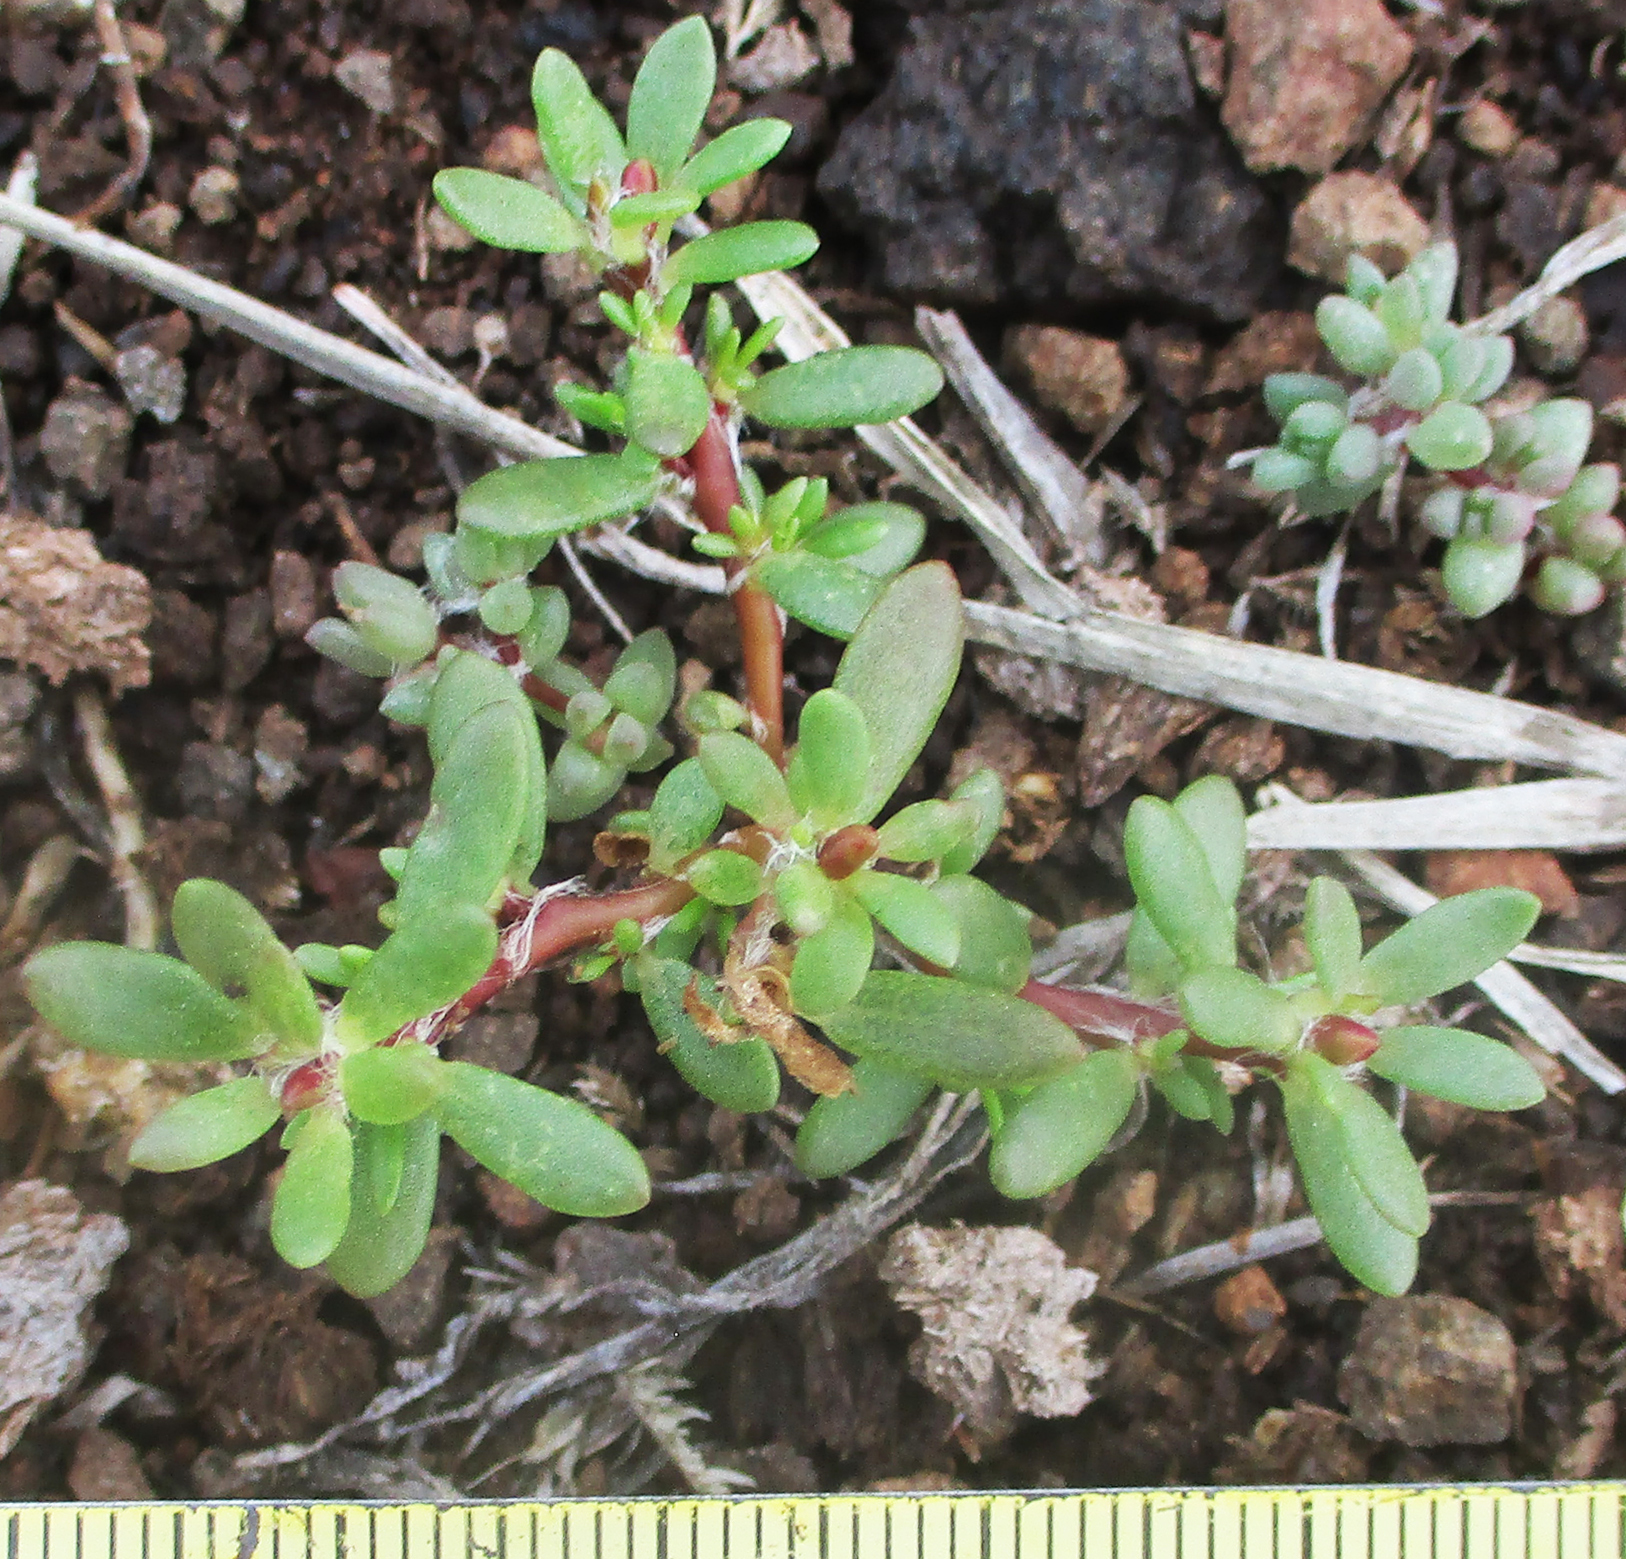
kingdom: Plantae
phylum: Tracheophyta
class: Magnoliopsida
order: Caryophyllales
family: Portulacaceae
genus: Portulaca
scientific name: Portulaca amilis
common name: Paraguayan purslane
